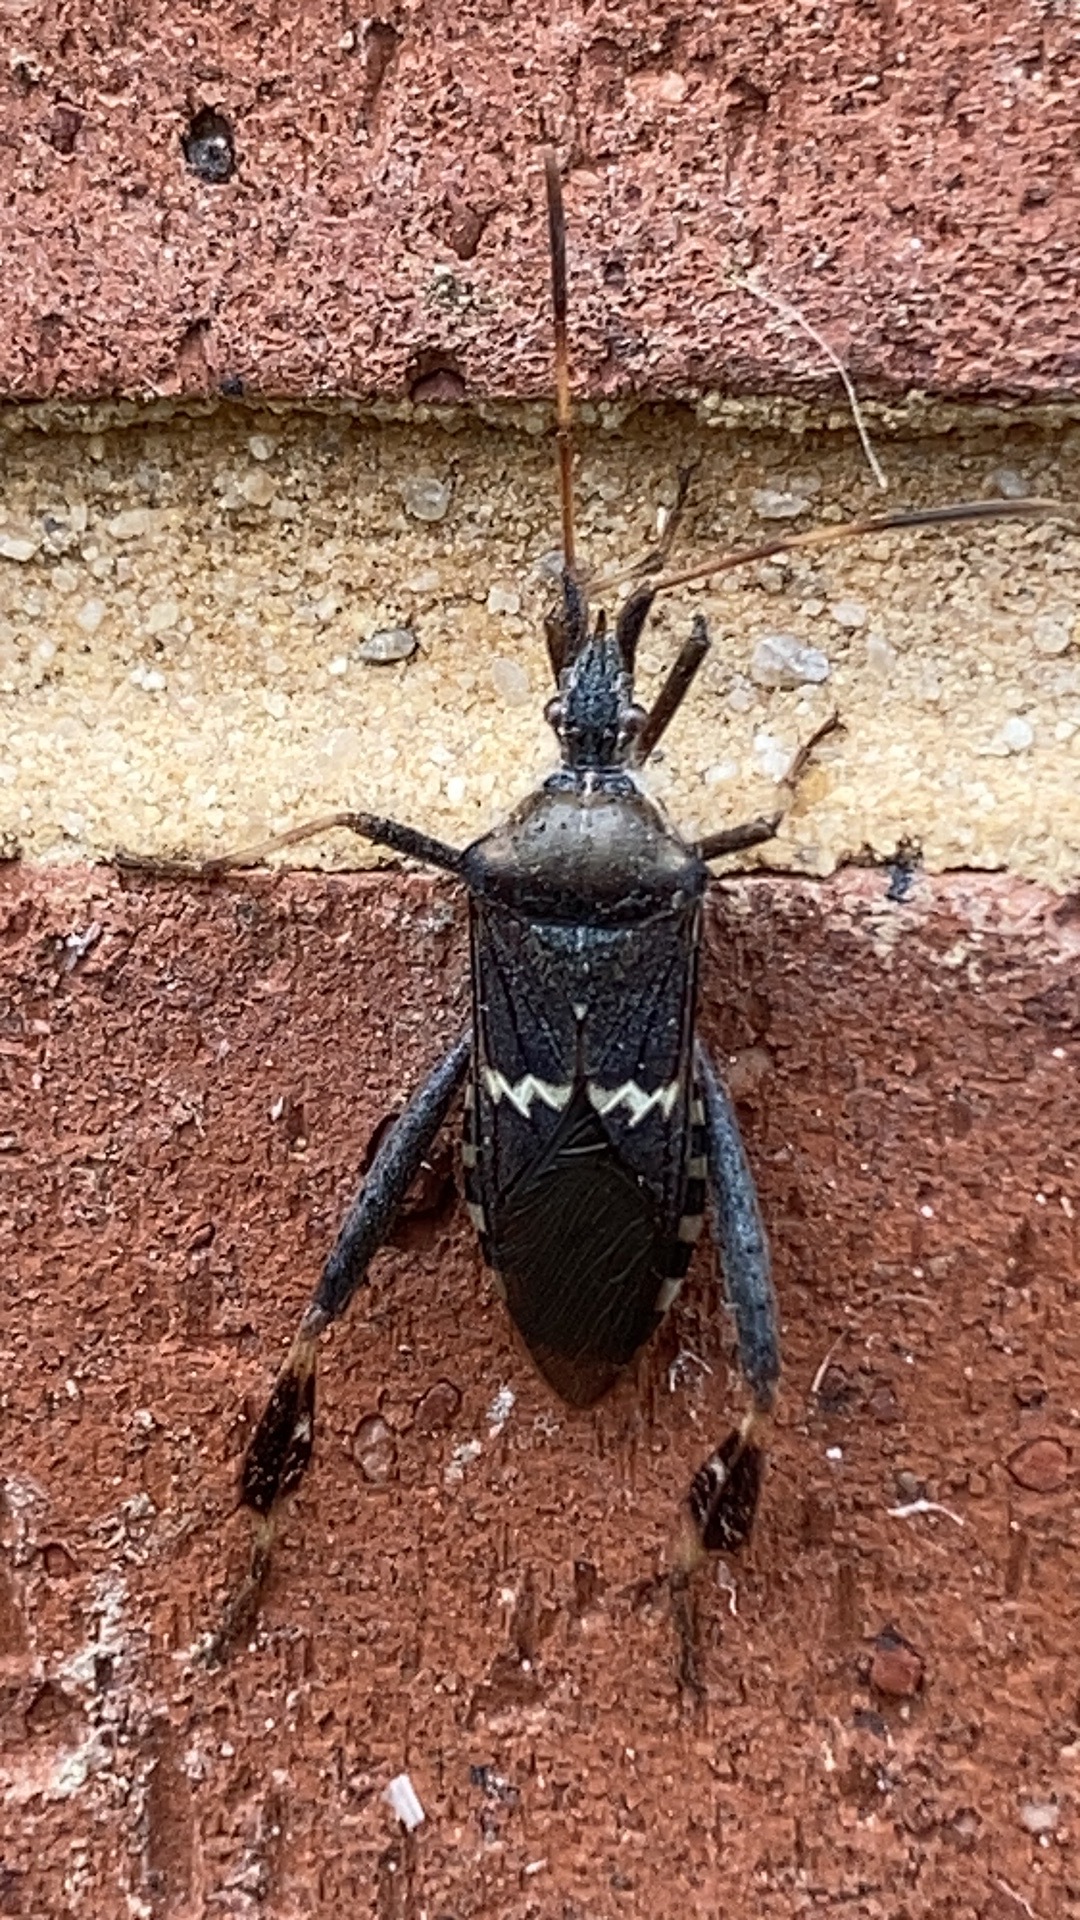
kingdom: Animalia
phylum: Arthropoda
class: Insecta
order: Hemiptera
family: Coreidae
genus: Leptoglossus
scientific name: Leptoglossus clypealis
